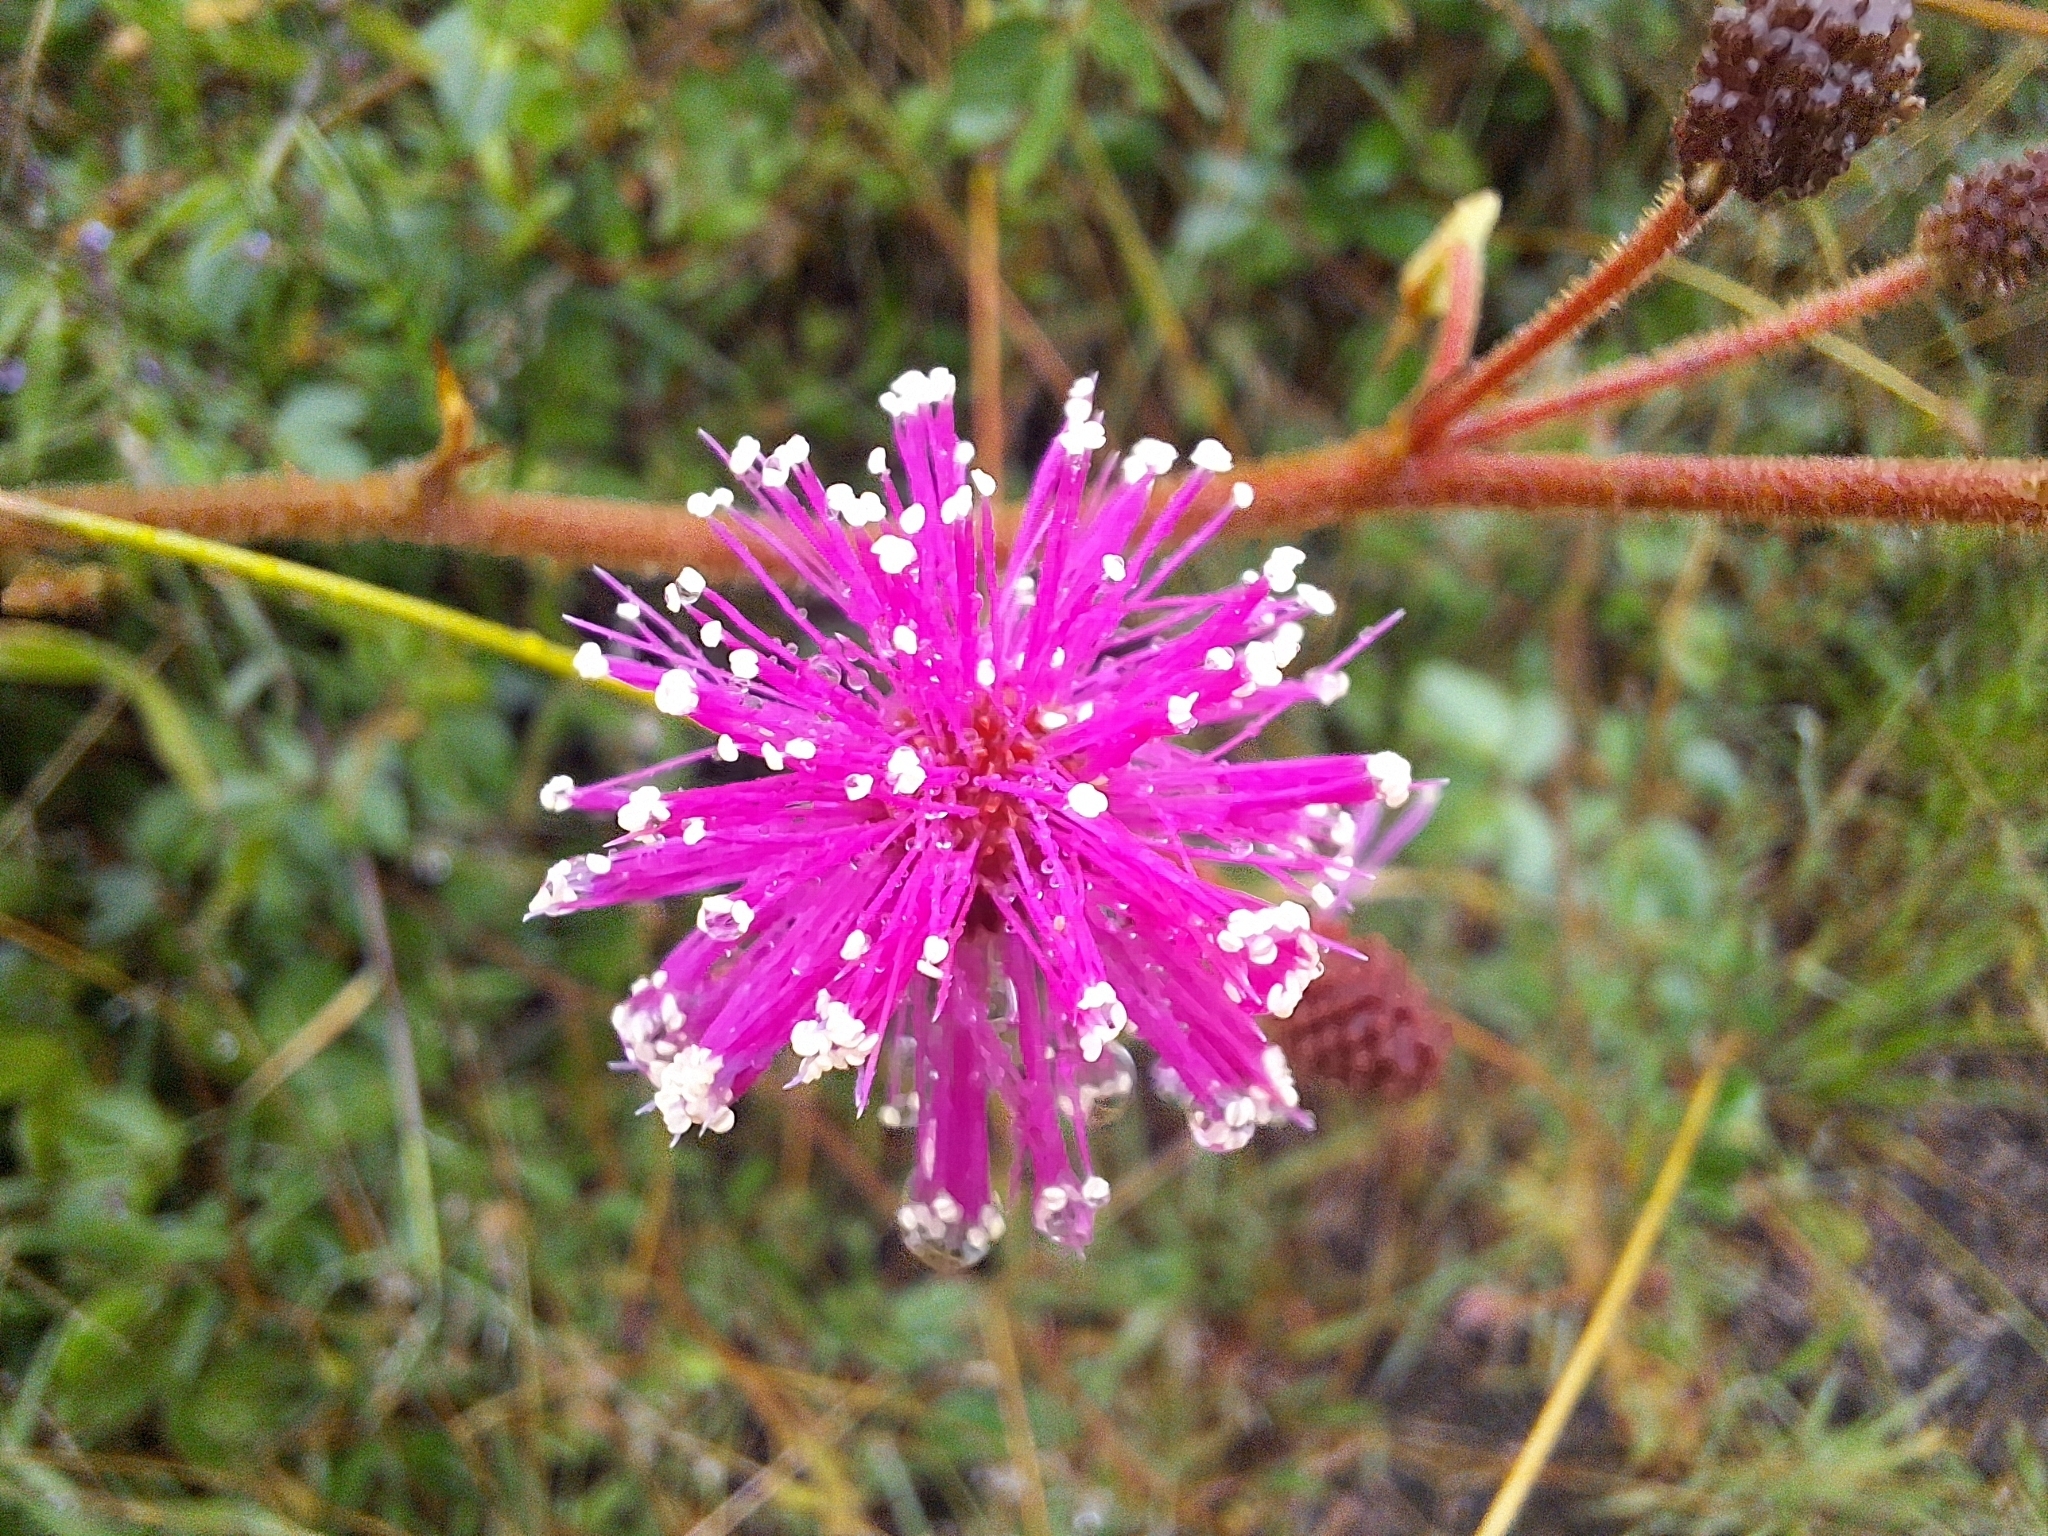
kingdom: Plantae
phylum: Tracheophyta
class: Magnoliopsida
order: Fabales
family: Fabaceae
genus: Mimosa
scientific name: Mimosa albida
